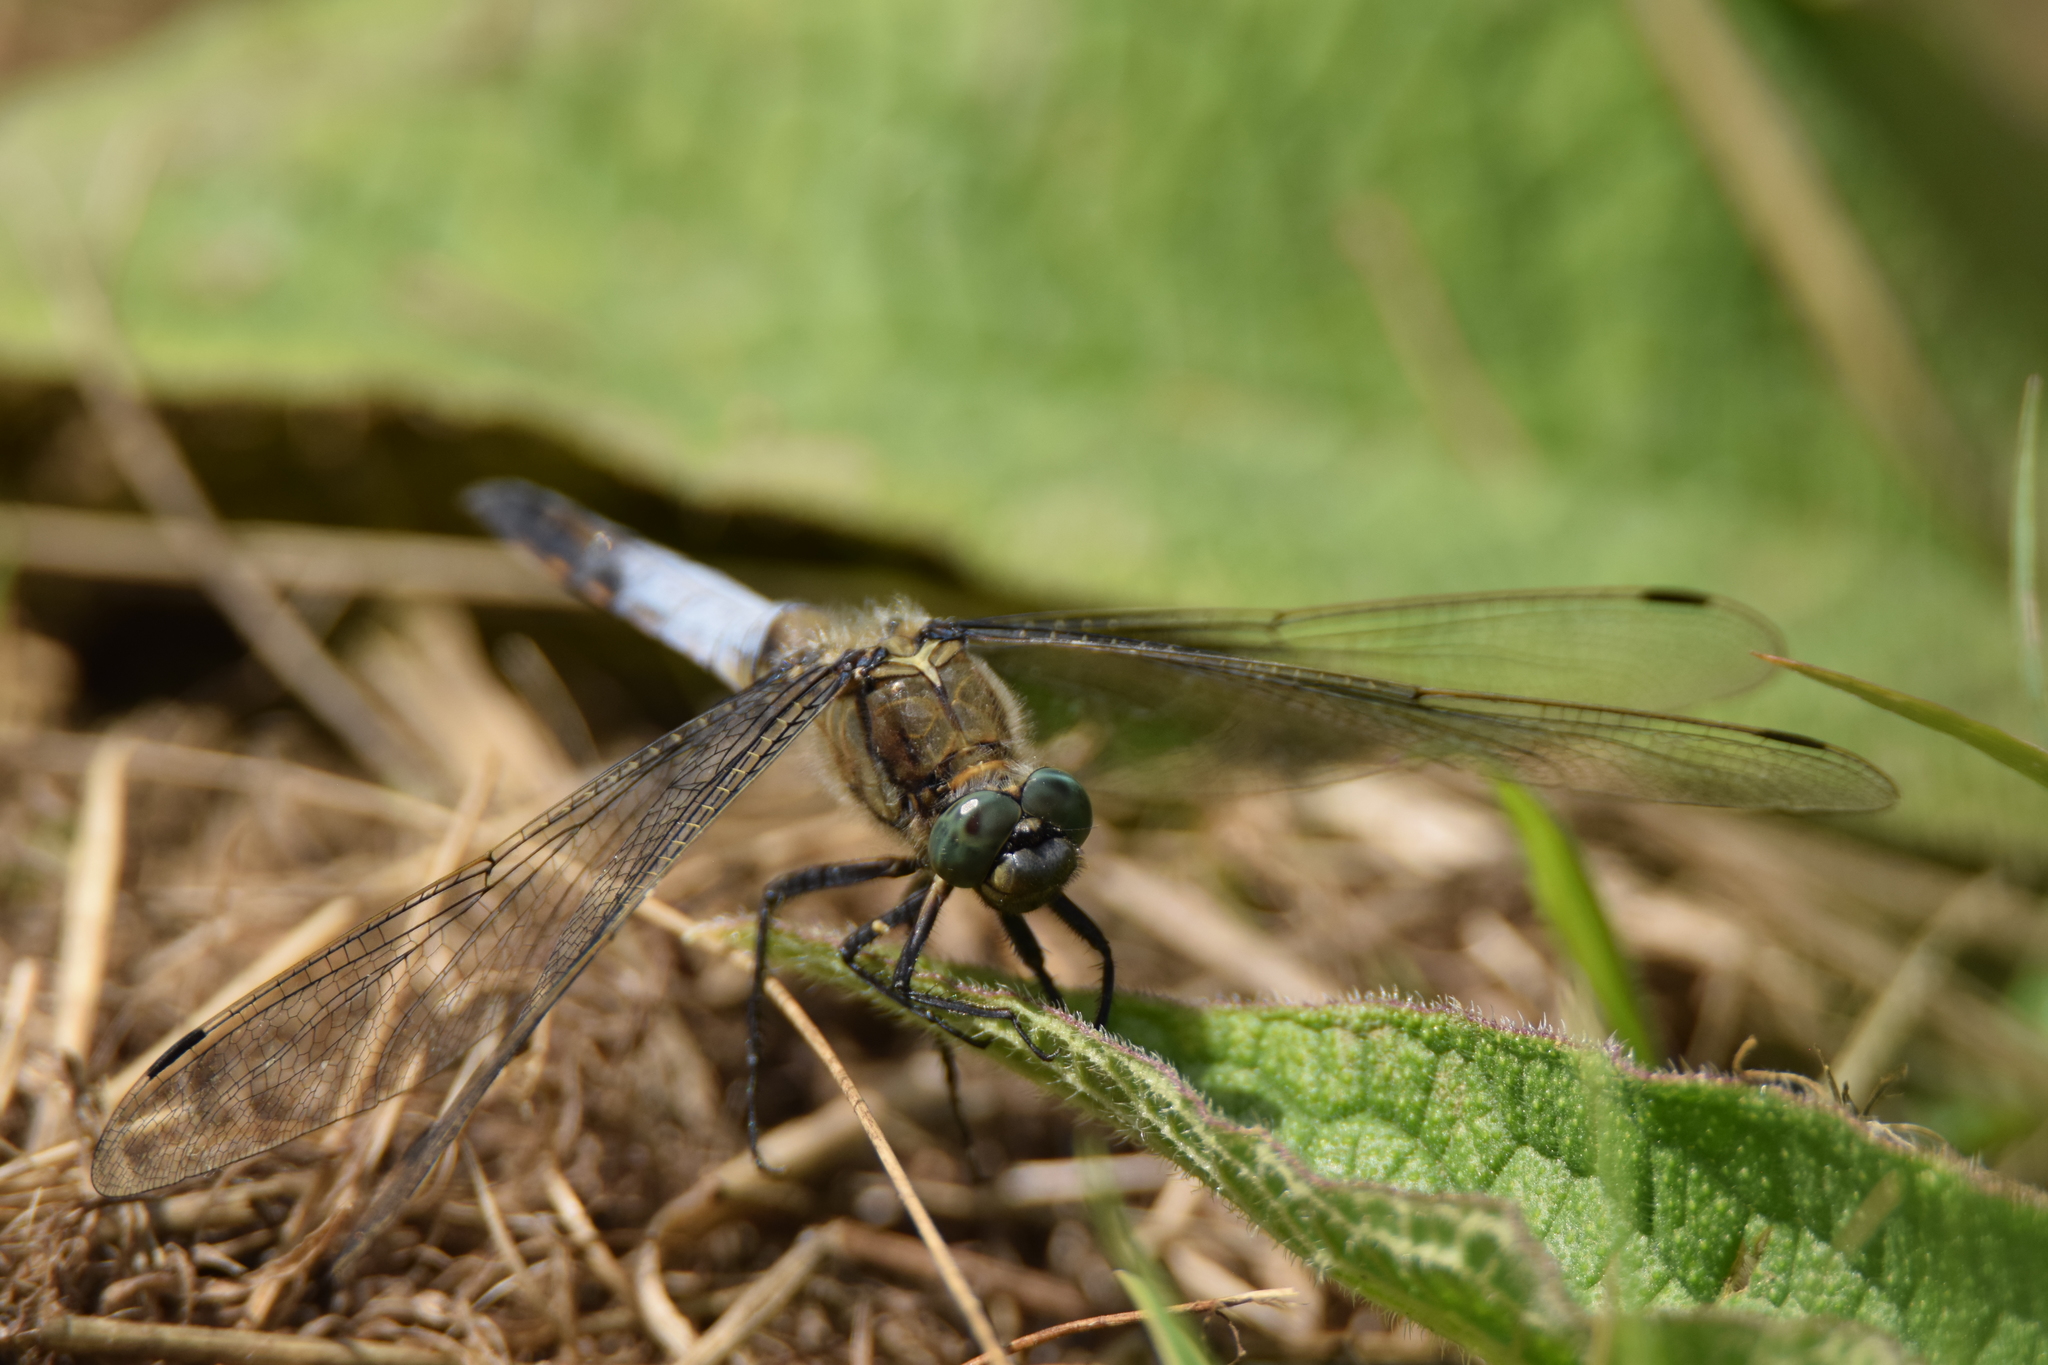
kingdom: Animalia
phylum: Arthropoda
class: Insecta
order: Odonata
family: Libellulidae
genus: Orthetrum
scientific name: Orthetrum cancellatum
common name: Black-tailed skimmer
